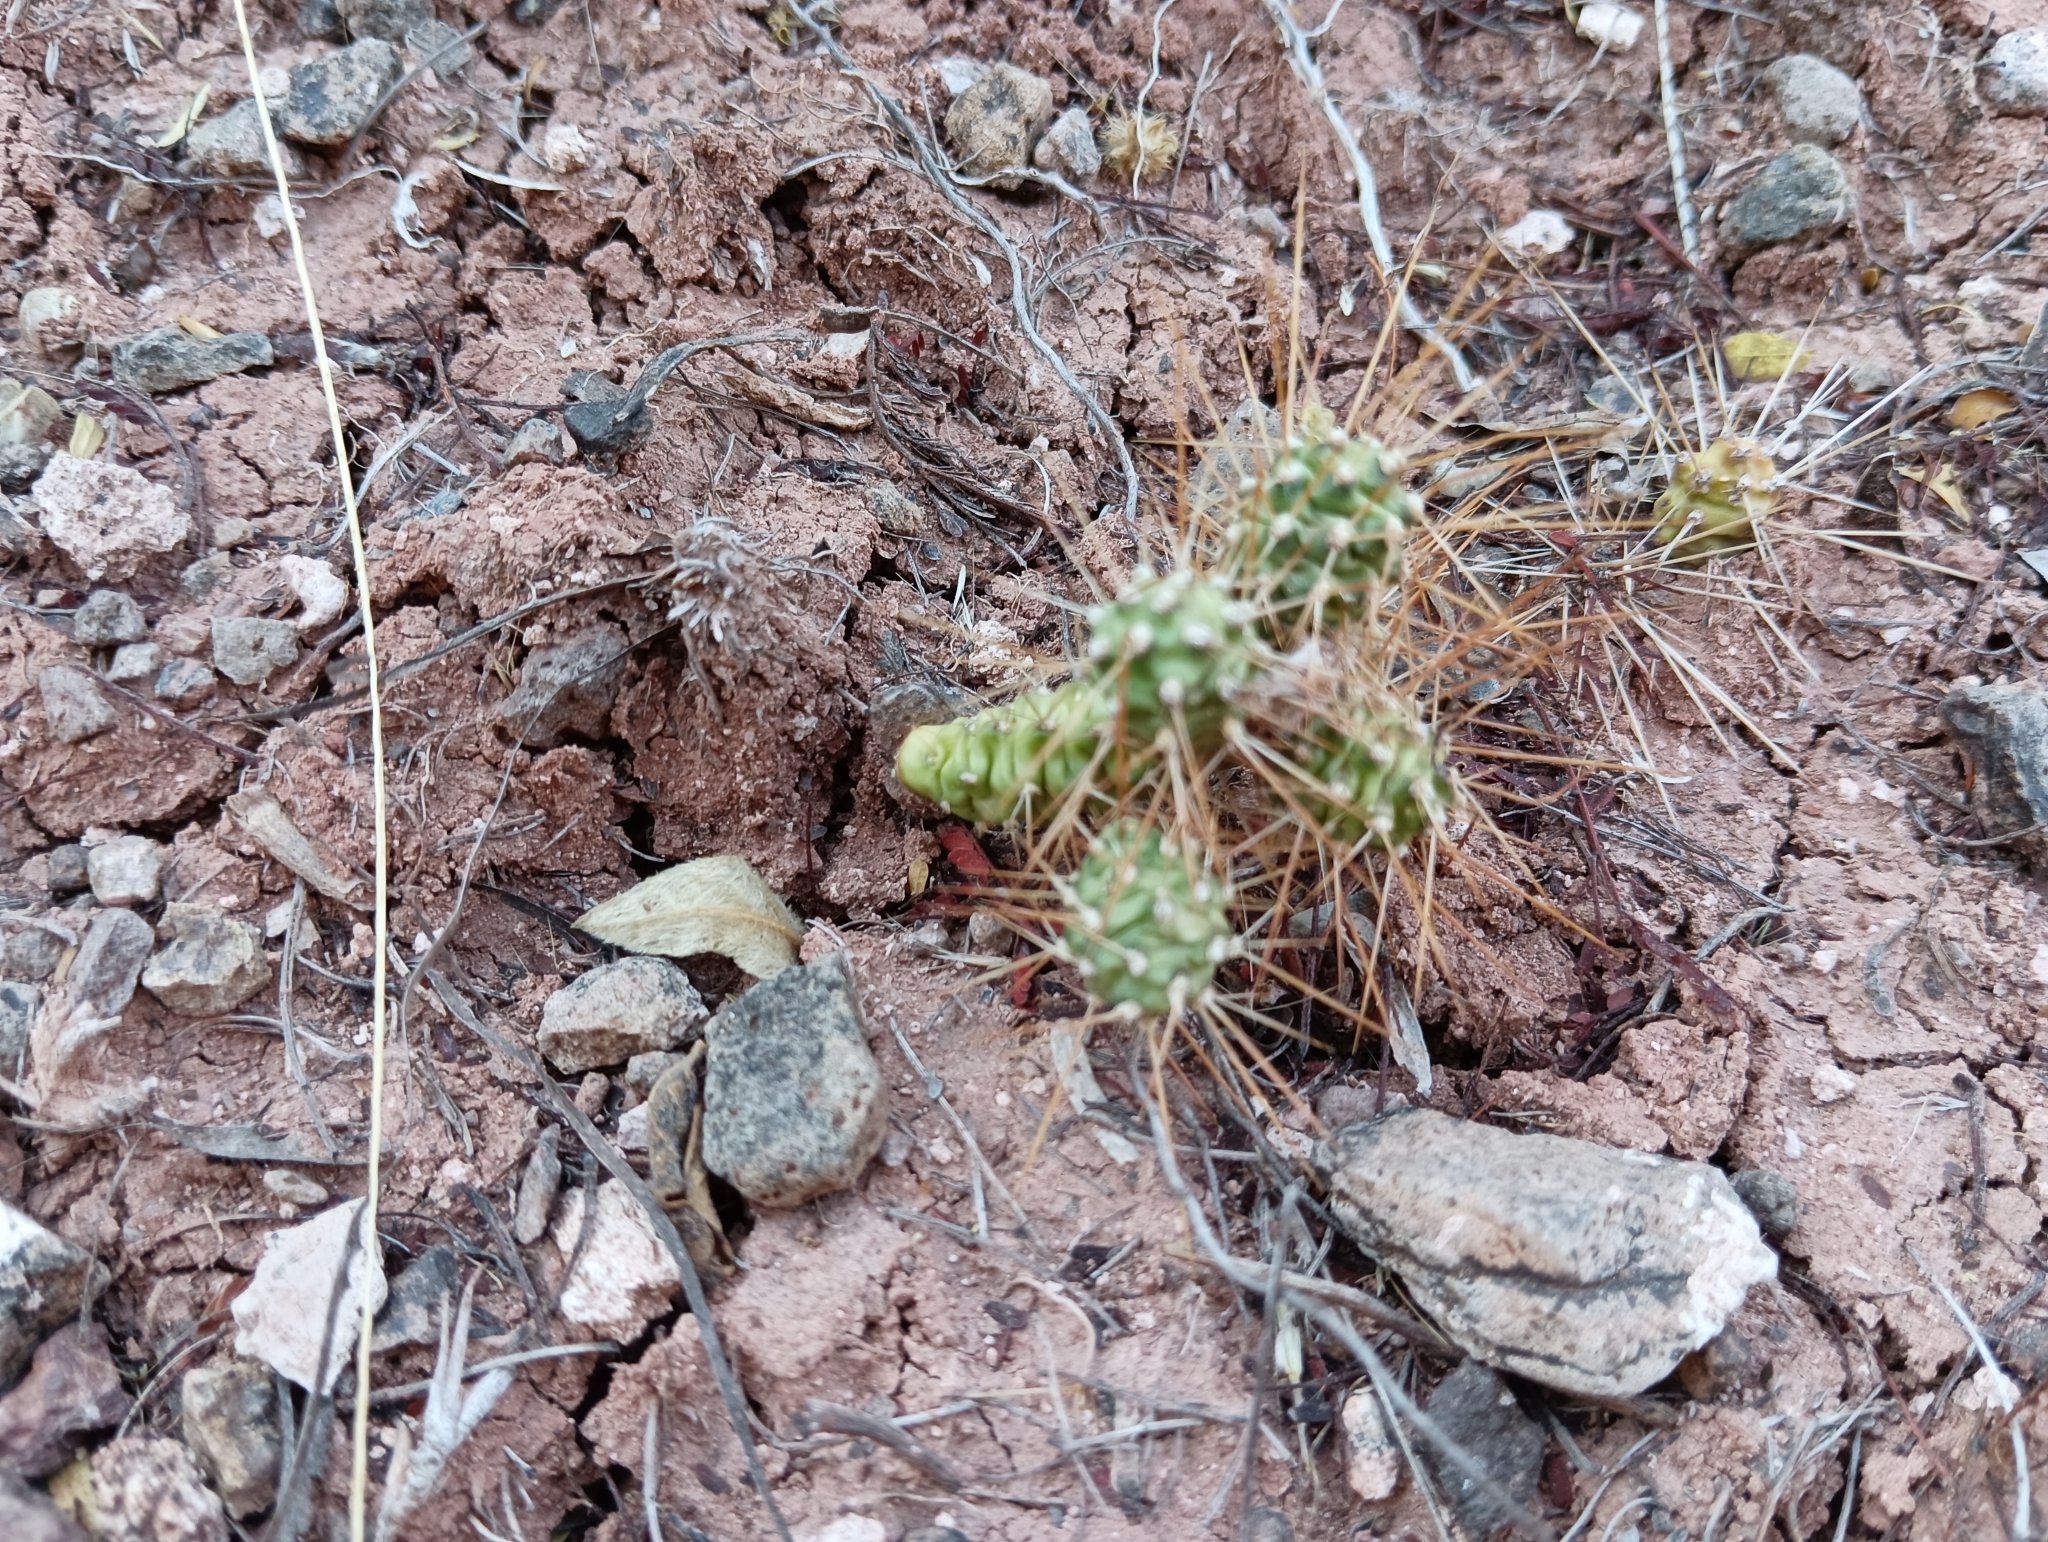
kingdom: Plantae
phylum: Tracheophyta
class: Magnoliopsida
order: Caryophyllales
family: Cactaceae
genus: Opuntia
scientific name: Opuntia pubescens
